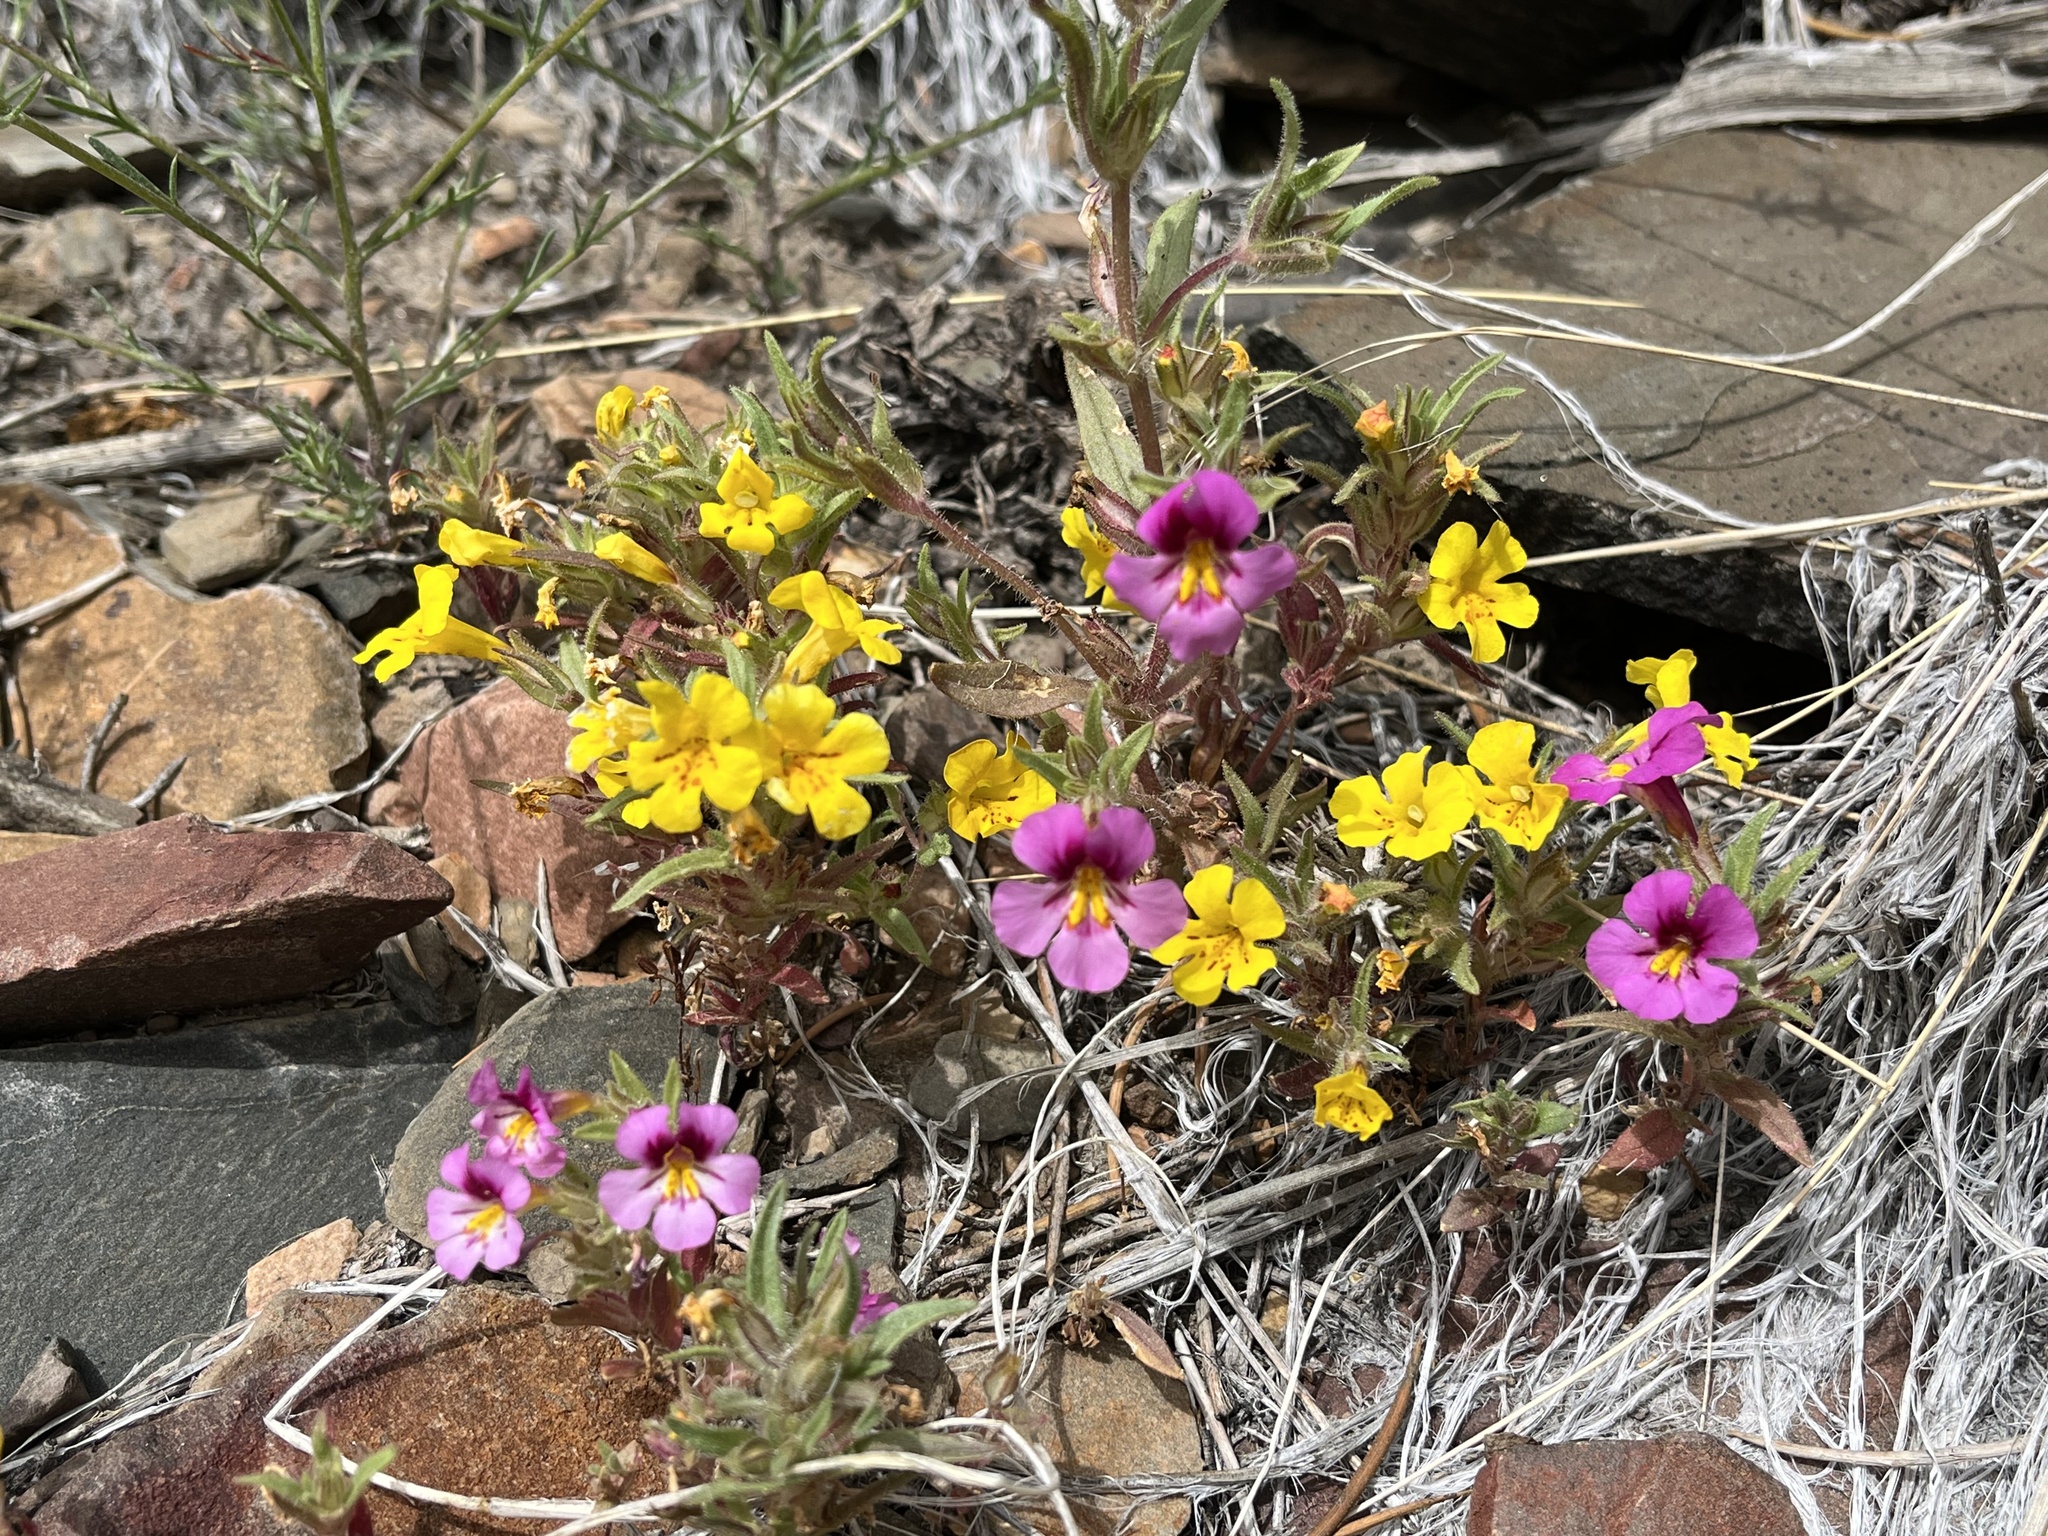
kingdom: Plantae
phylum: Tracheophyta
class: Magnoliopsida
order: Lamiales
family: Phrymaceae
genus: Diplacus
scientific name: Diplacus mephiticus
